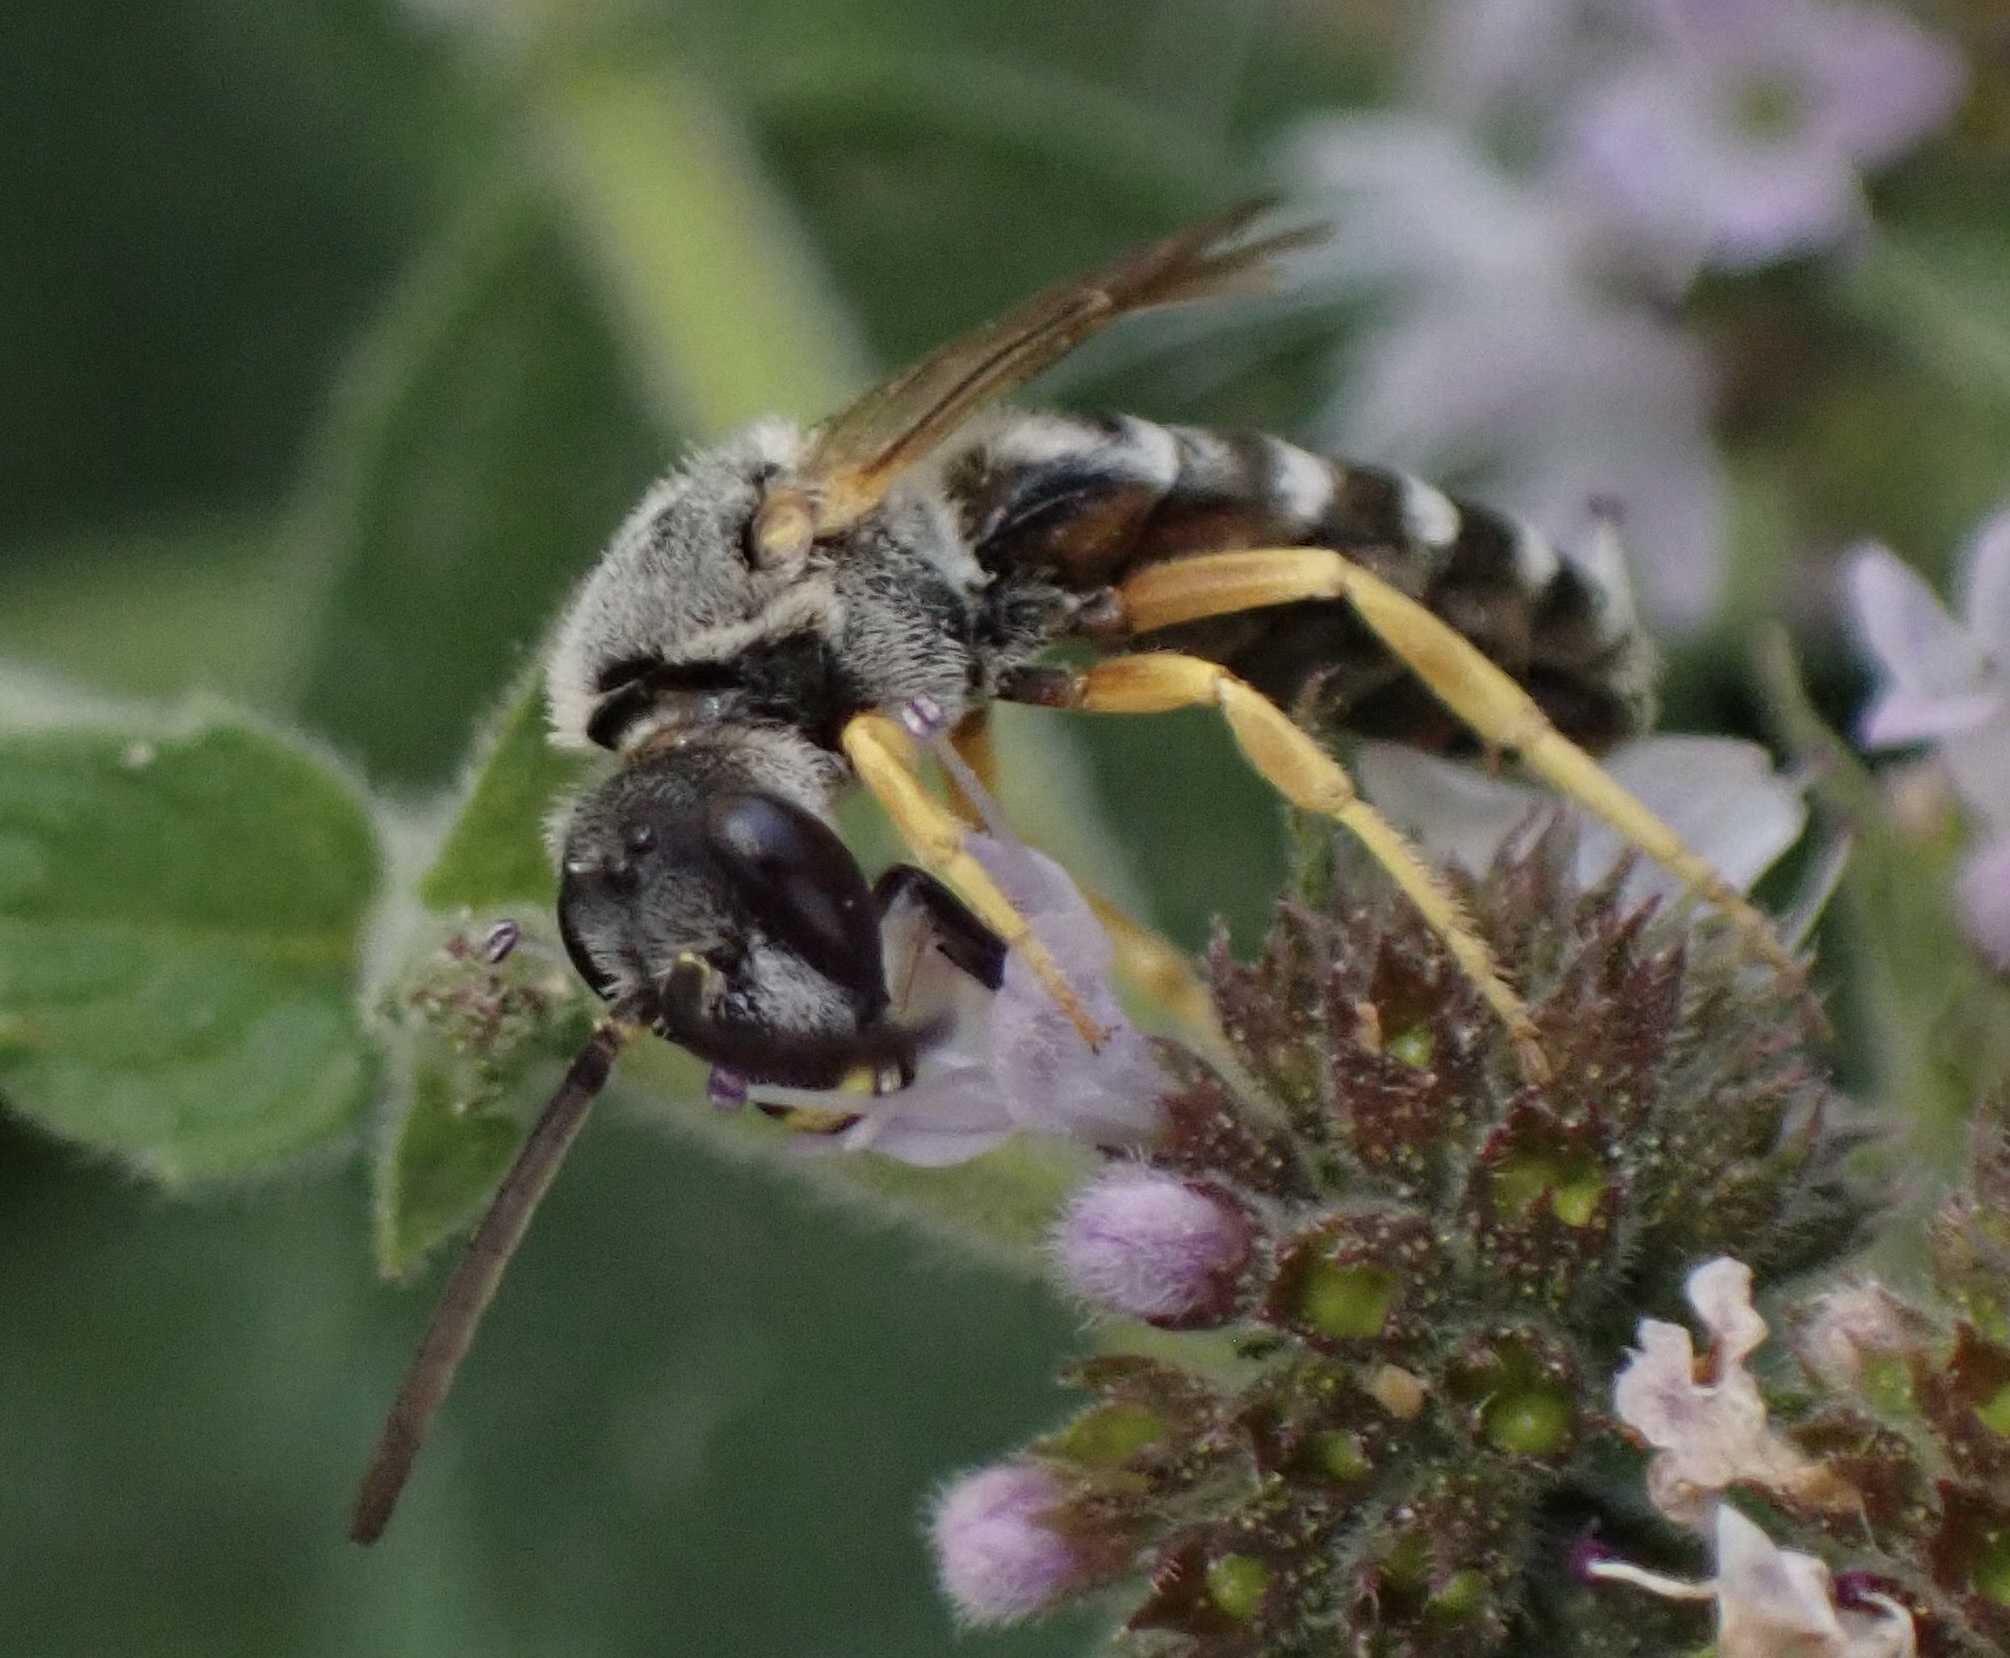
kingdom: Animalia
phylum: Arthropoda
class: Insecta
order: Hymenoptera
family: Halictidae
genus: Halictus
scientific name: Halictus scabiosae
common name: Great banded furrow bee
